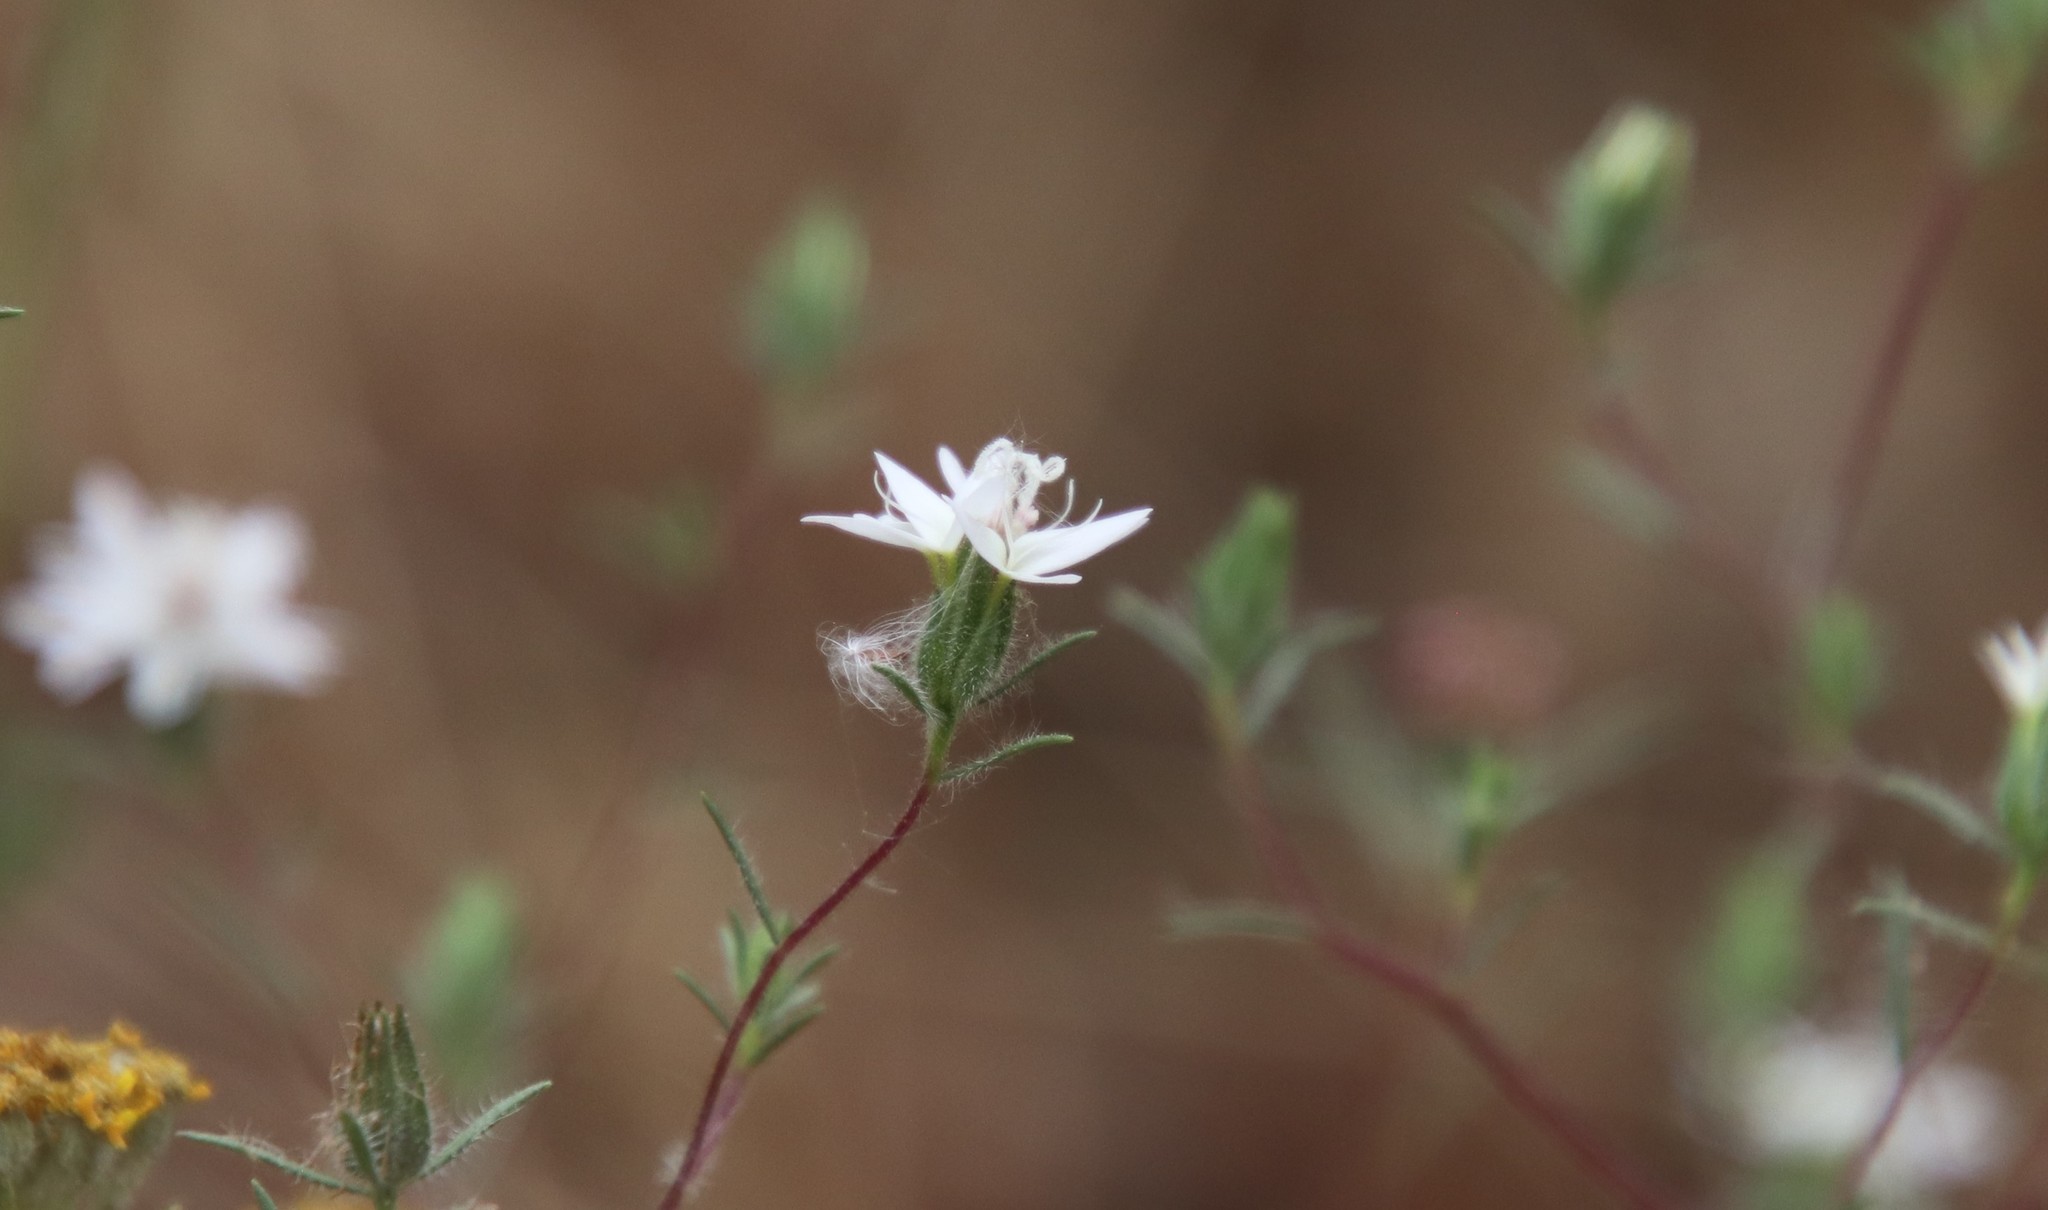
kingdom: Plantae
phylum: Tracheophyta
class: Magnoliopsida
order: Asterales
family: Asteraceae
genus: Osmadenia
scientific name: Osmadenia tenella
